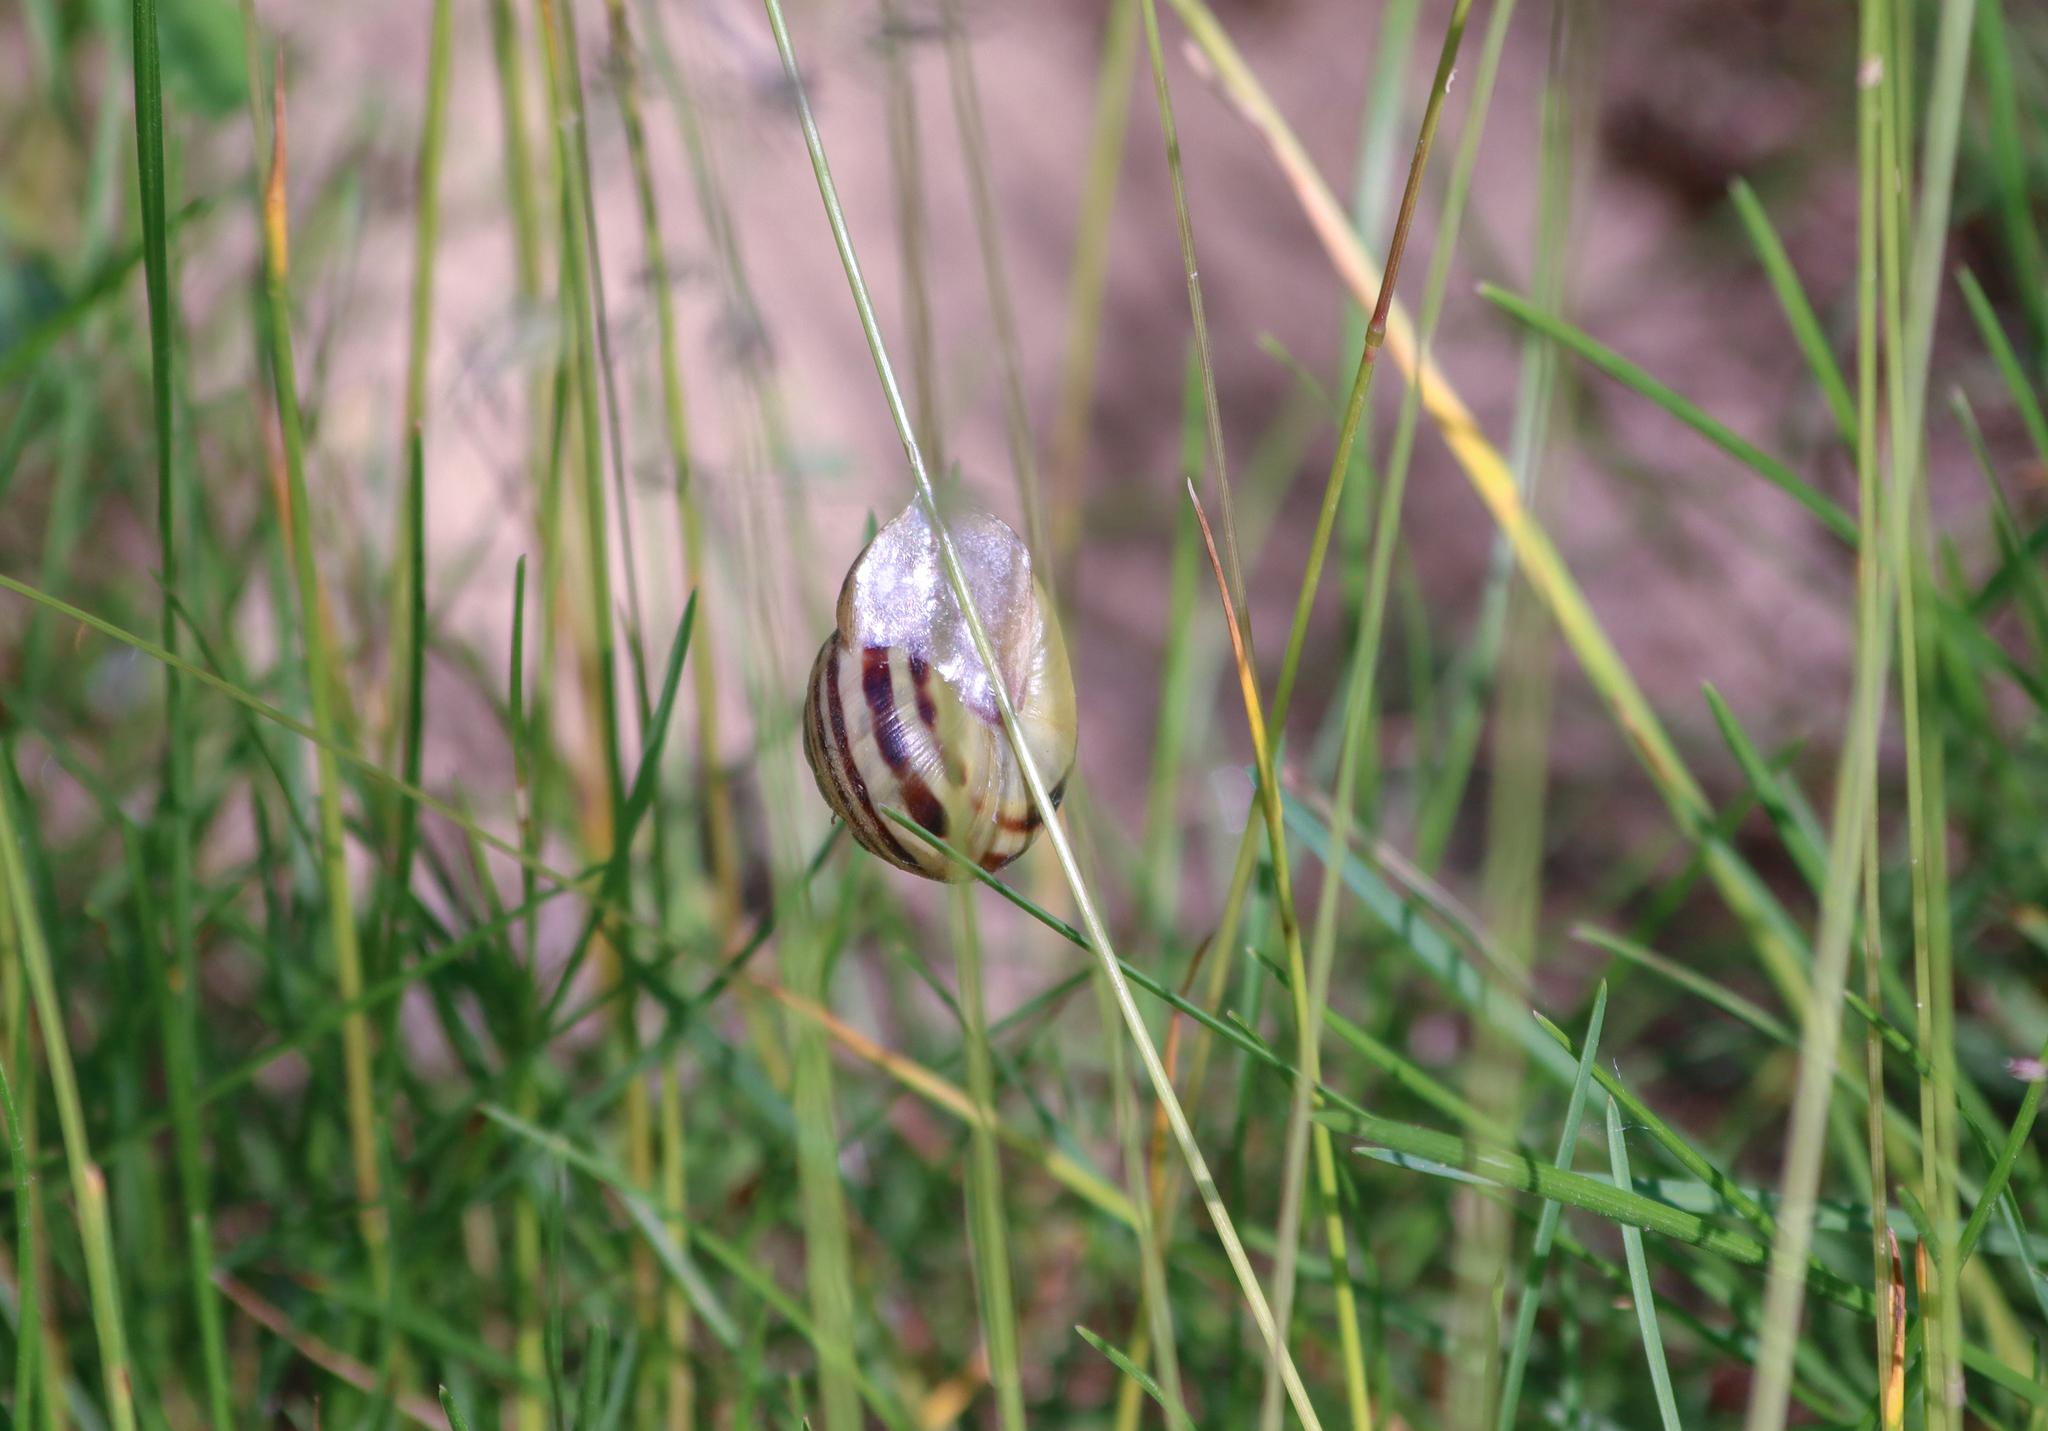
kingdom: Animalia
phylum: Mollusca
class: Gastropoda
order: Stylommatophora
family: Helicidae
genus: Cepaea
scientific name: Cepaea nemoralis
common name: Grovesnail
